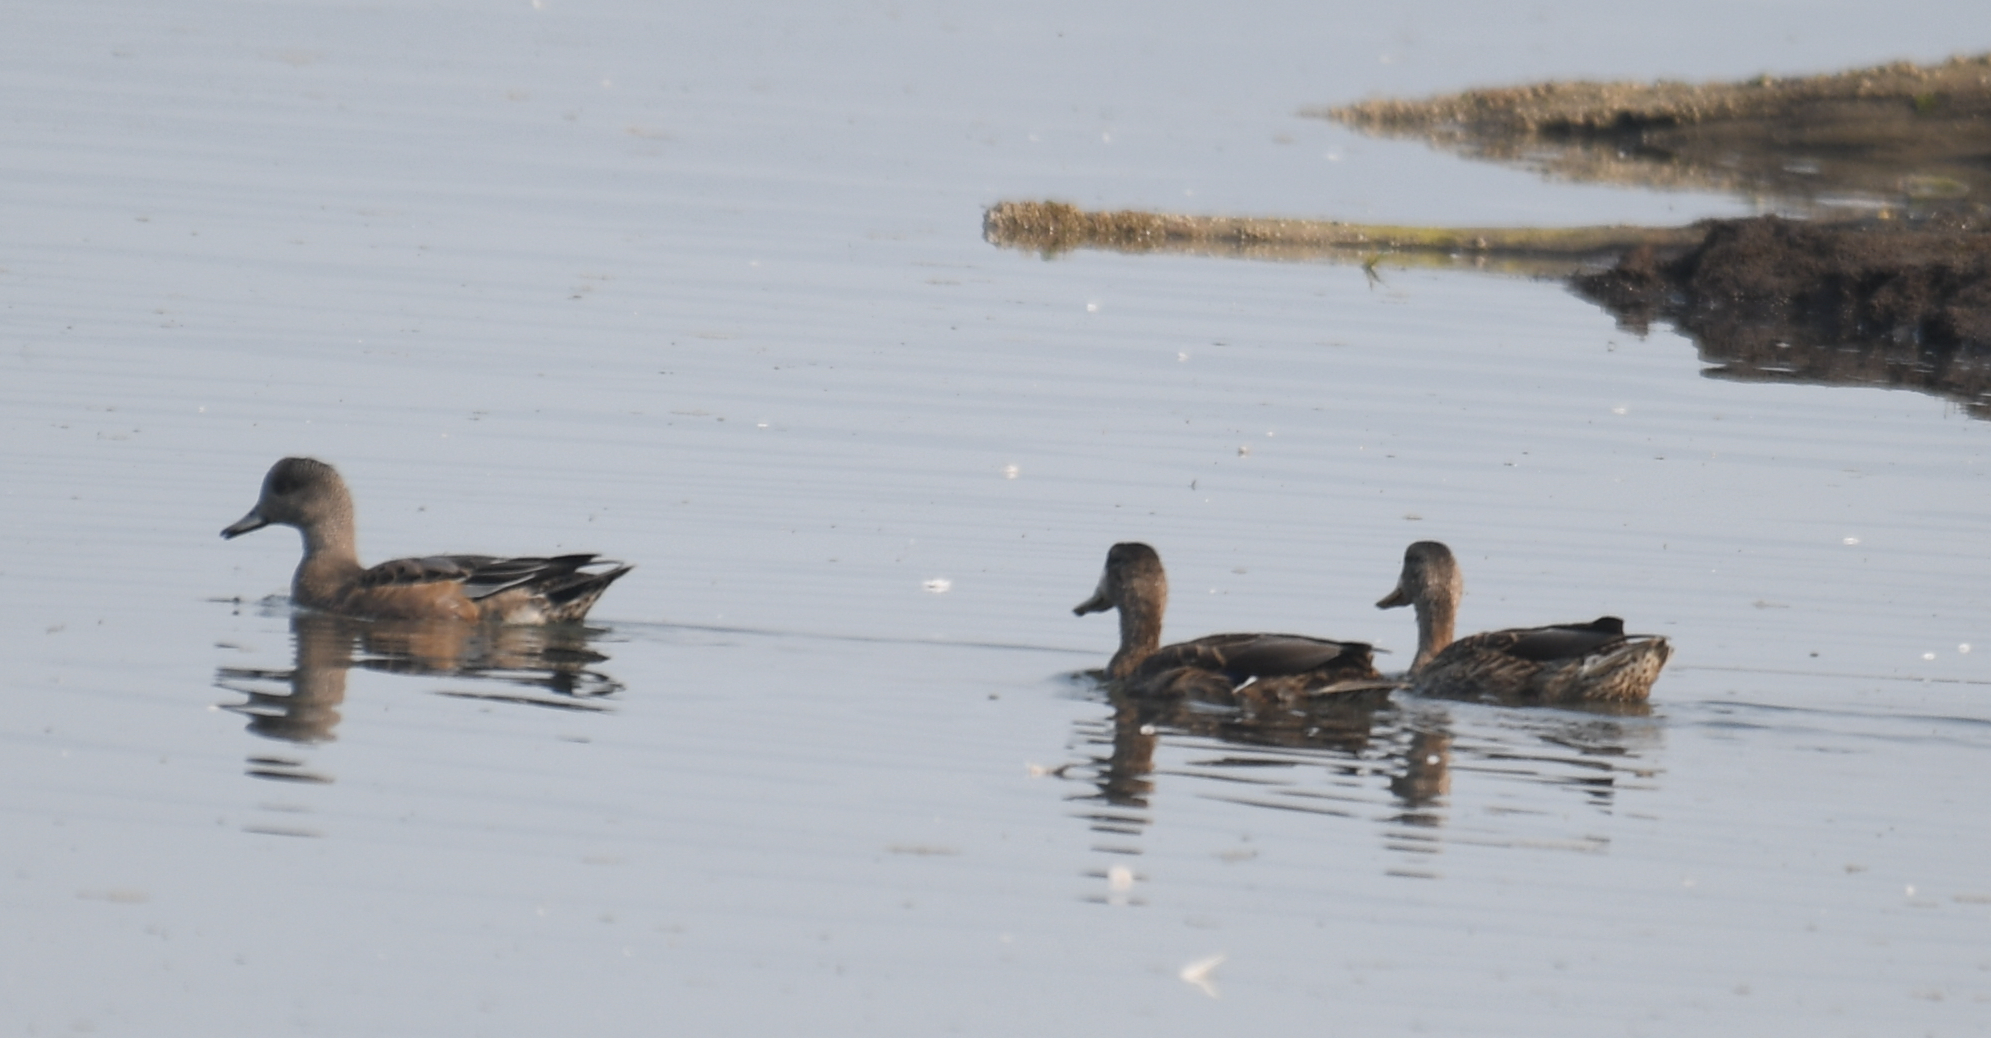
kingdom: Animalia
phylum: Chordata
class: Aves
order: Anseriformes
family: Anatidae
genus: Mareca
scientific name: Mareca americana
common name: American wigeon
